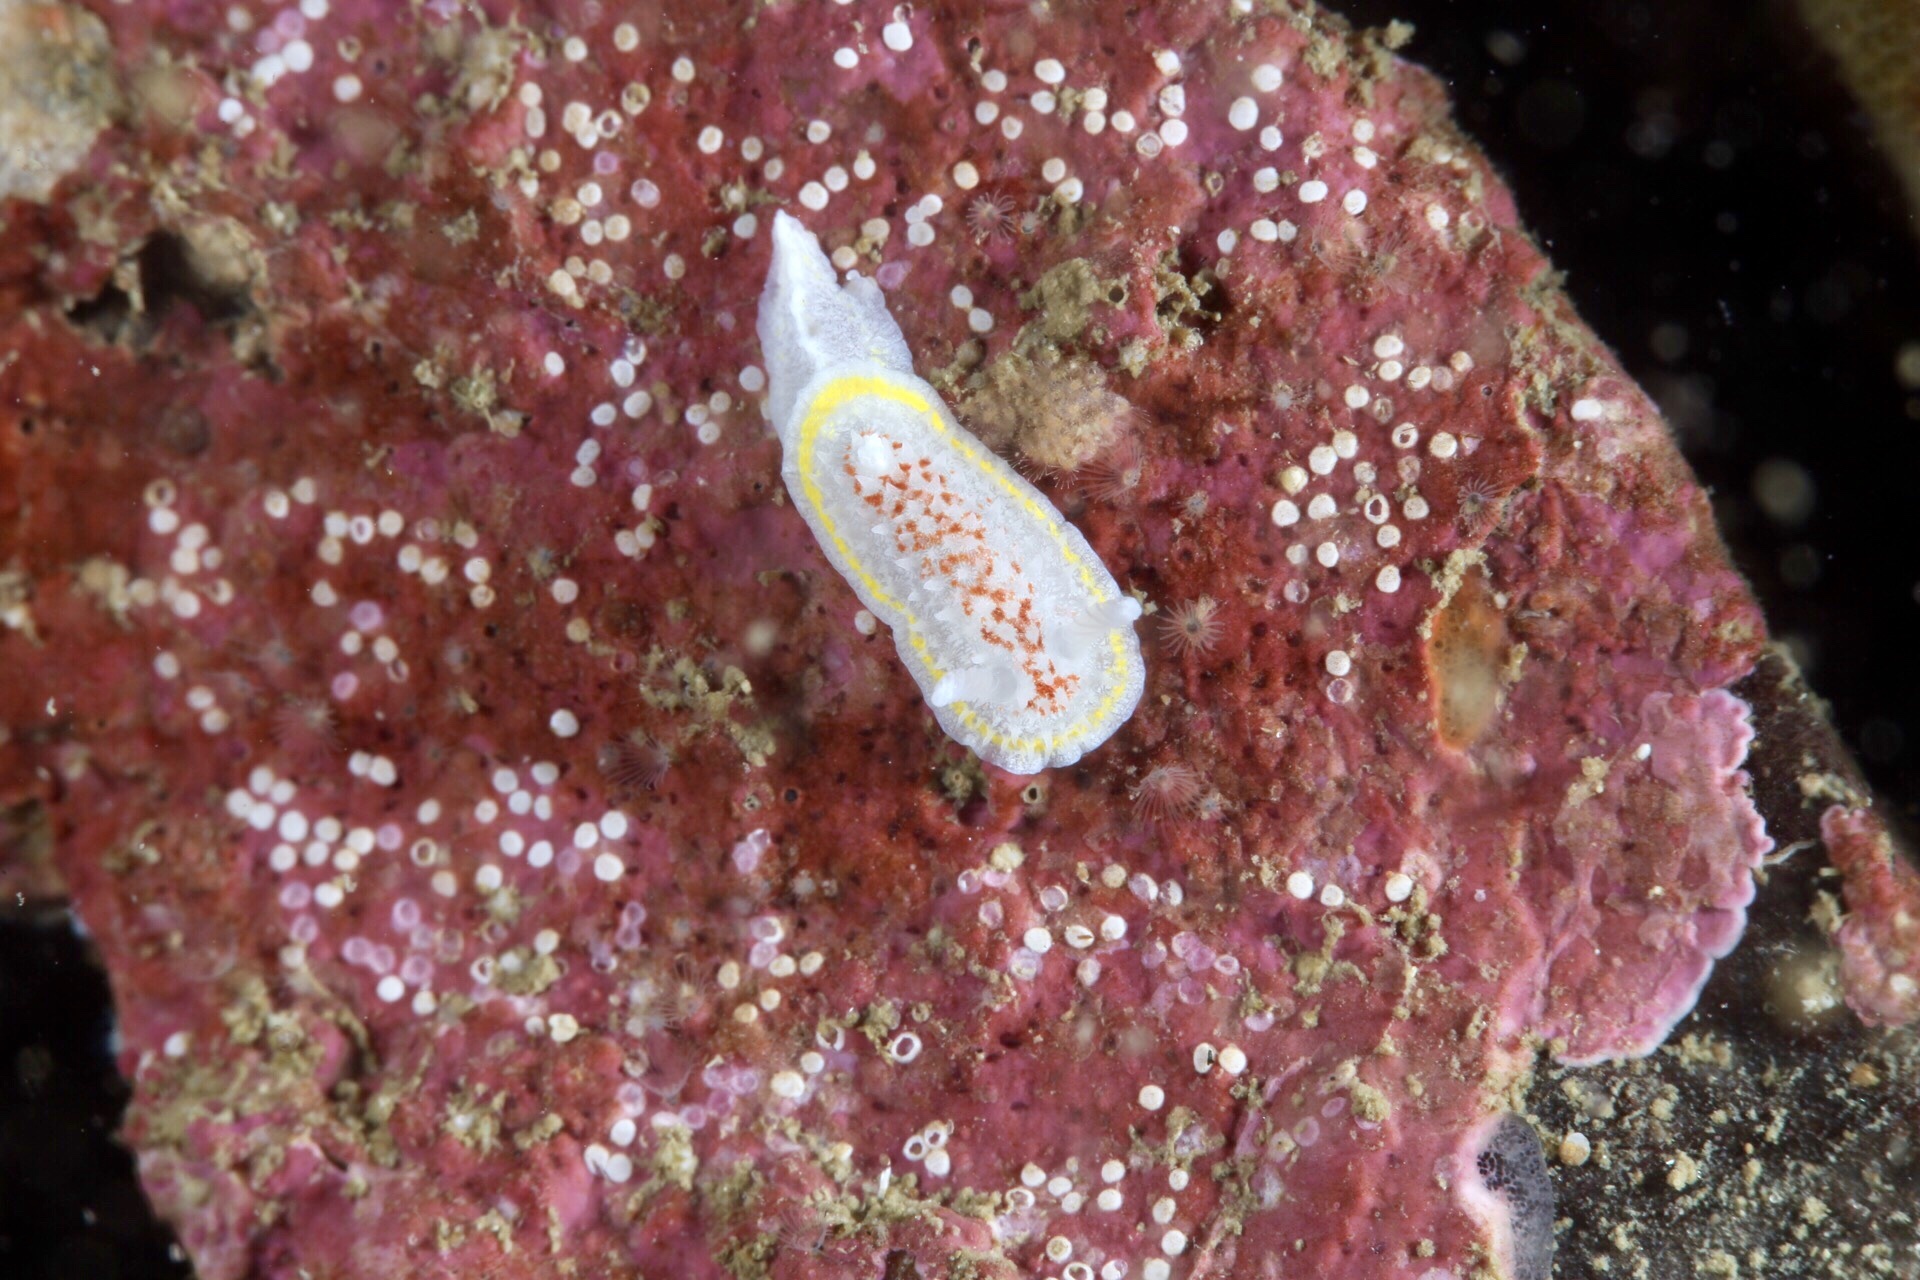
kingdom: Animalia
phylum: Mollusca
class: Gastropoda
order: Nudibranchia
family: Calycidorididae
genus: Diaphorodoris
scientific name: Diaphorodoris luteocincta
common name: Fried egg nudibranch
